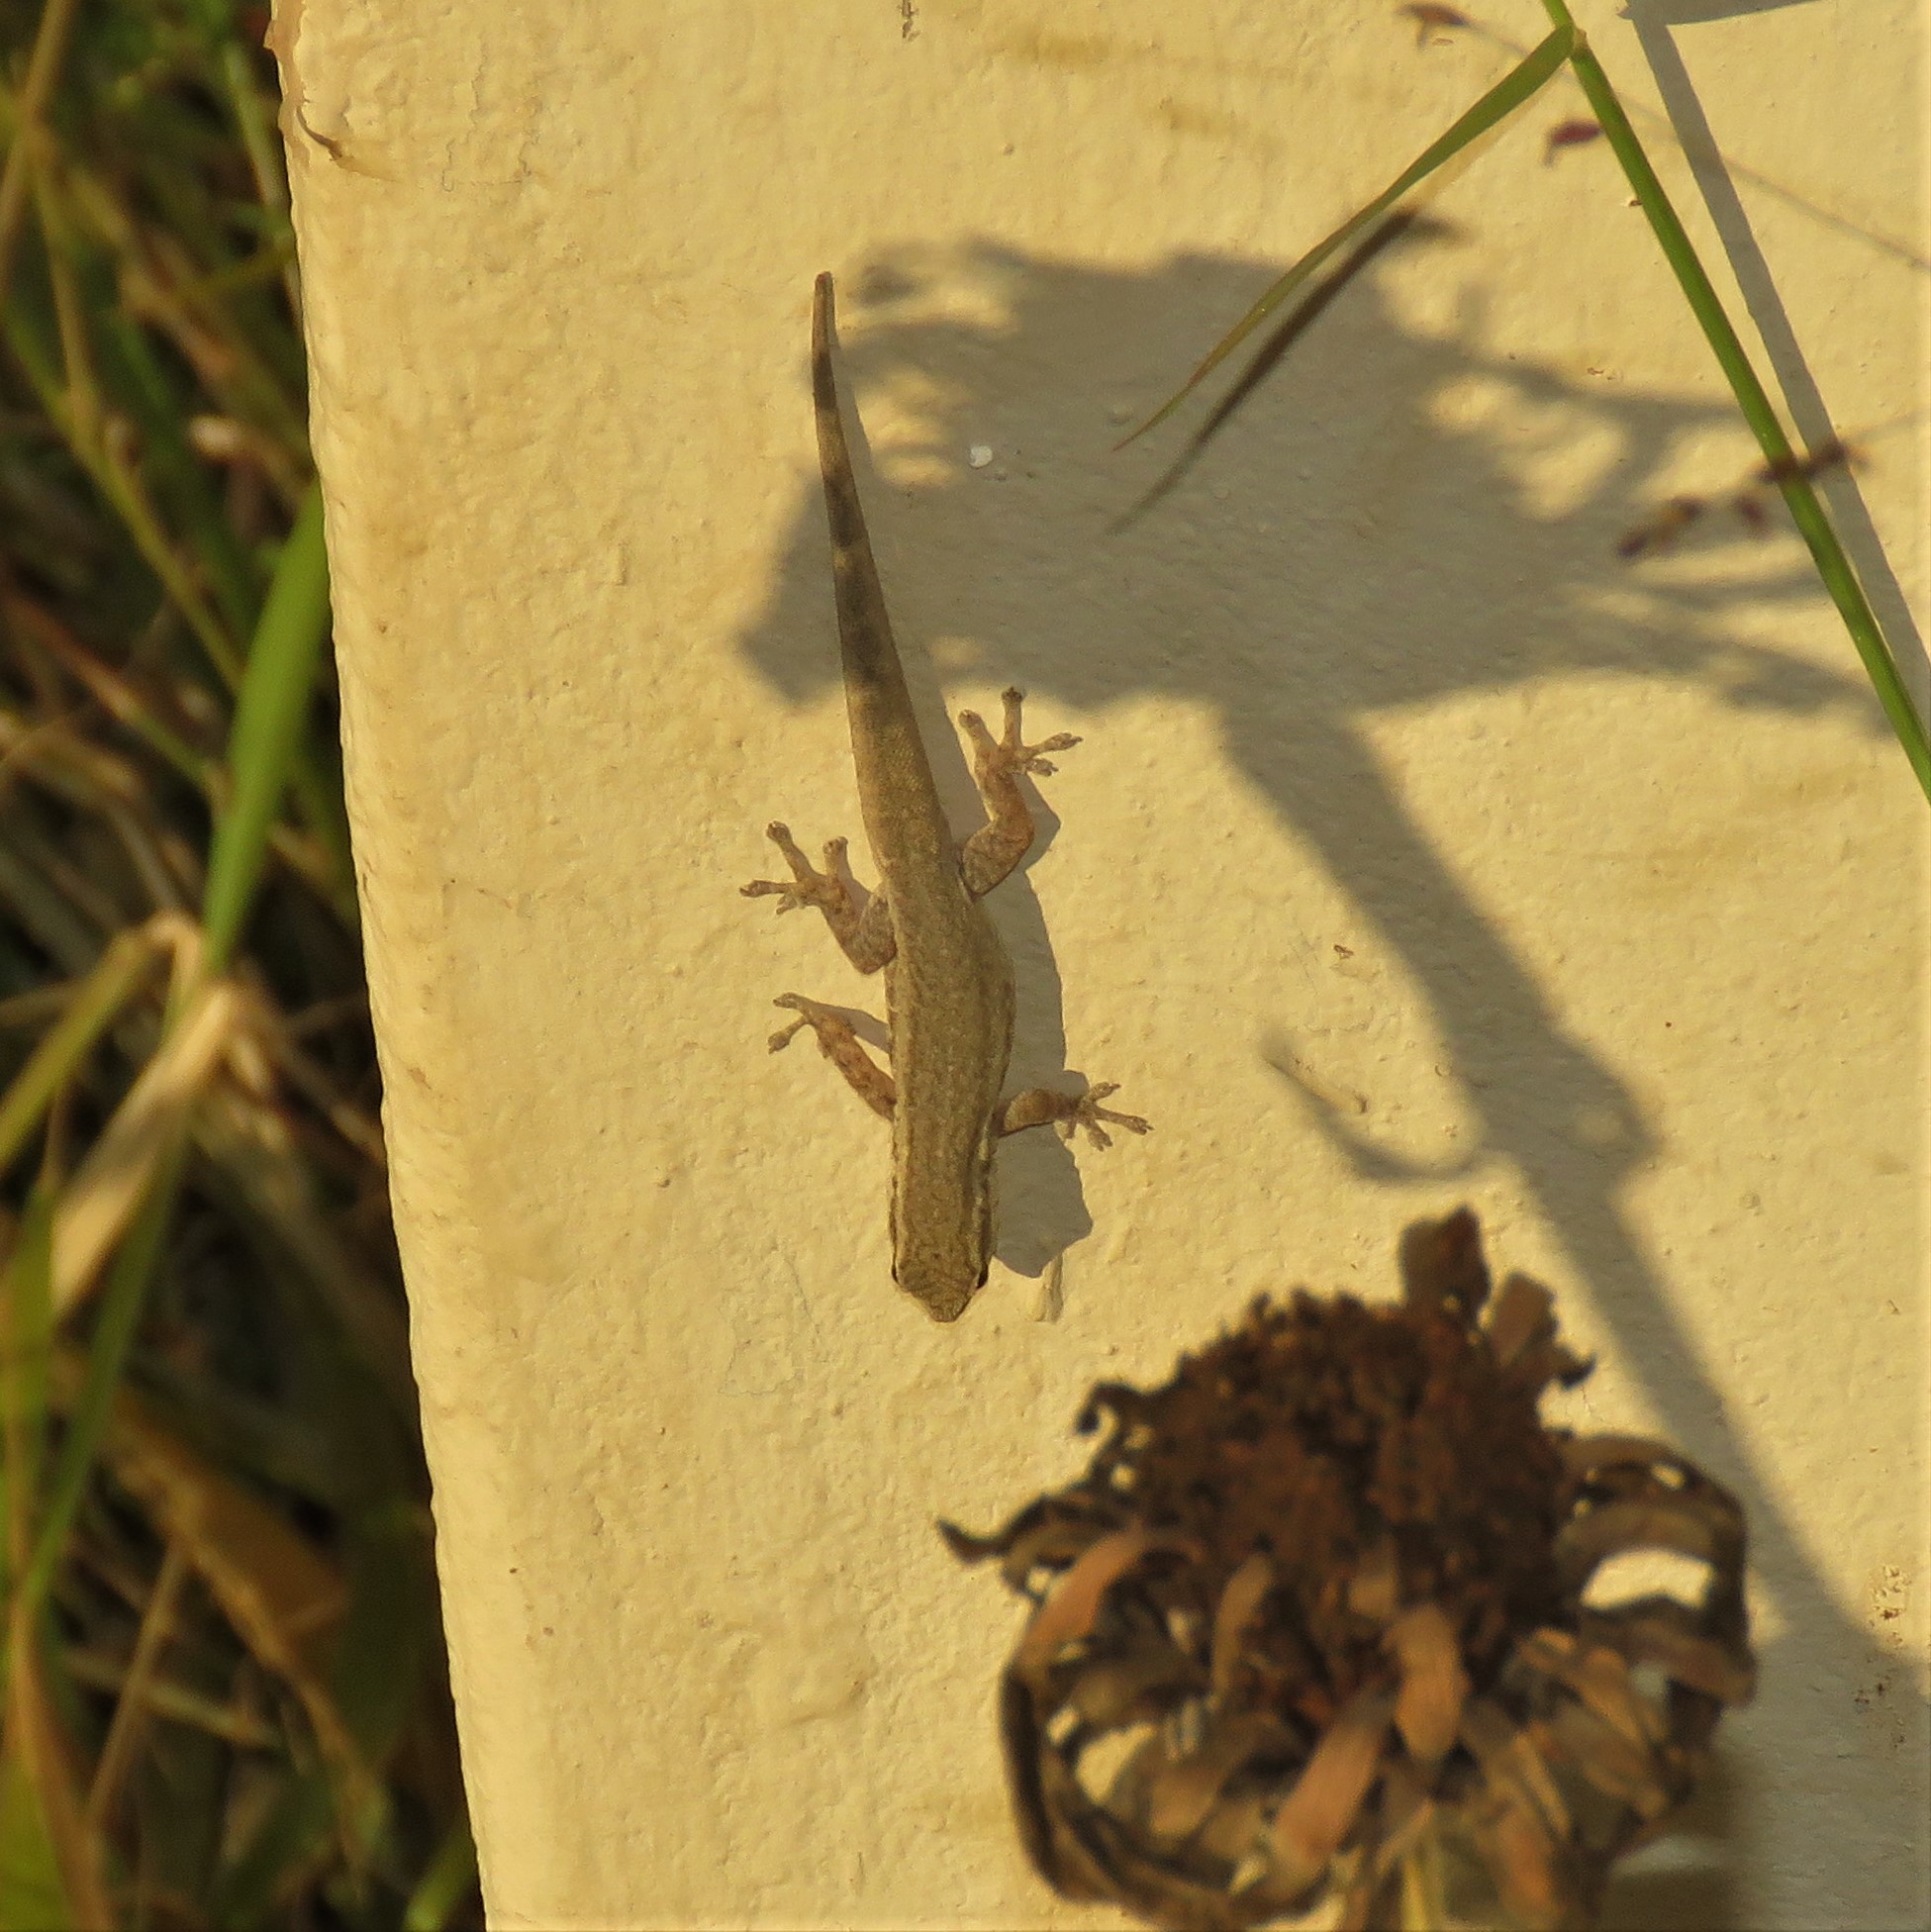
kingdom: Animalia
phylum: Chordata
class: Squamata
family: Gekkonidae
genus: Lygodactylus
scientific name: Lygodactylus capensis
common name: Cape dwarf gecko
